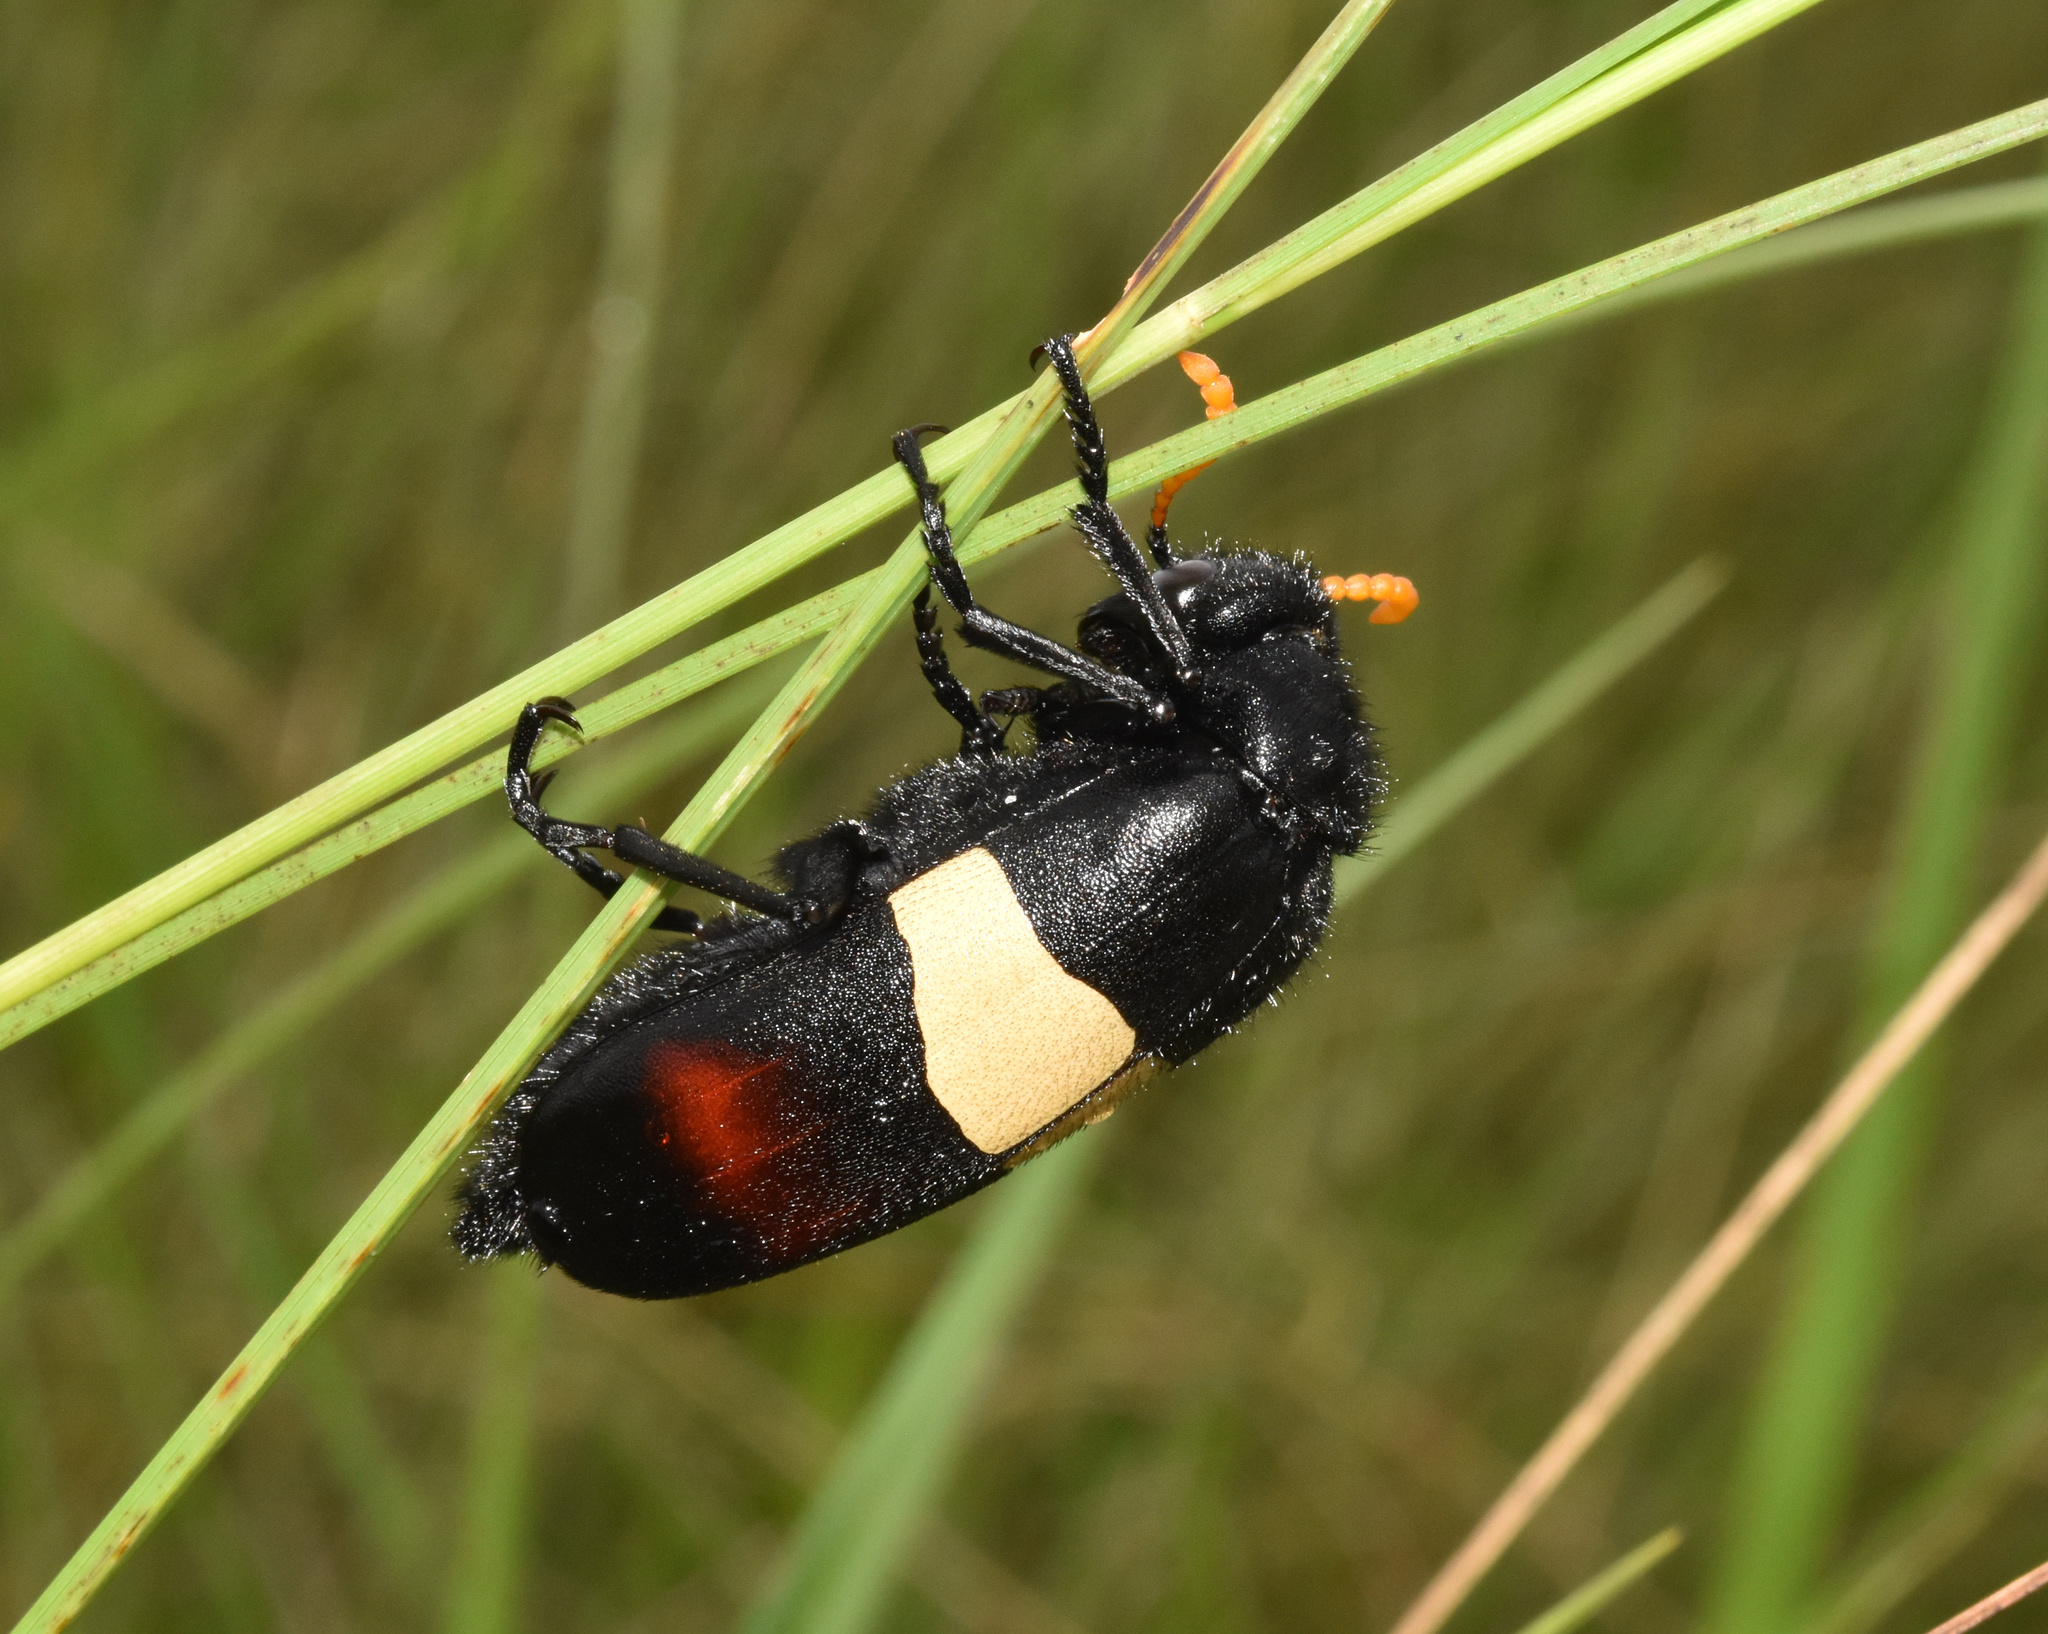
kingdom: Animalia
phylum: Arthropoda
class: Insecta
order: Coleoptera
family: Meloidae
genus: Hycleus
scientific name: Hycleus
